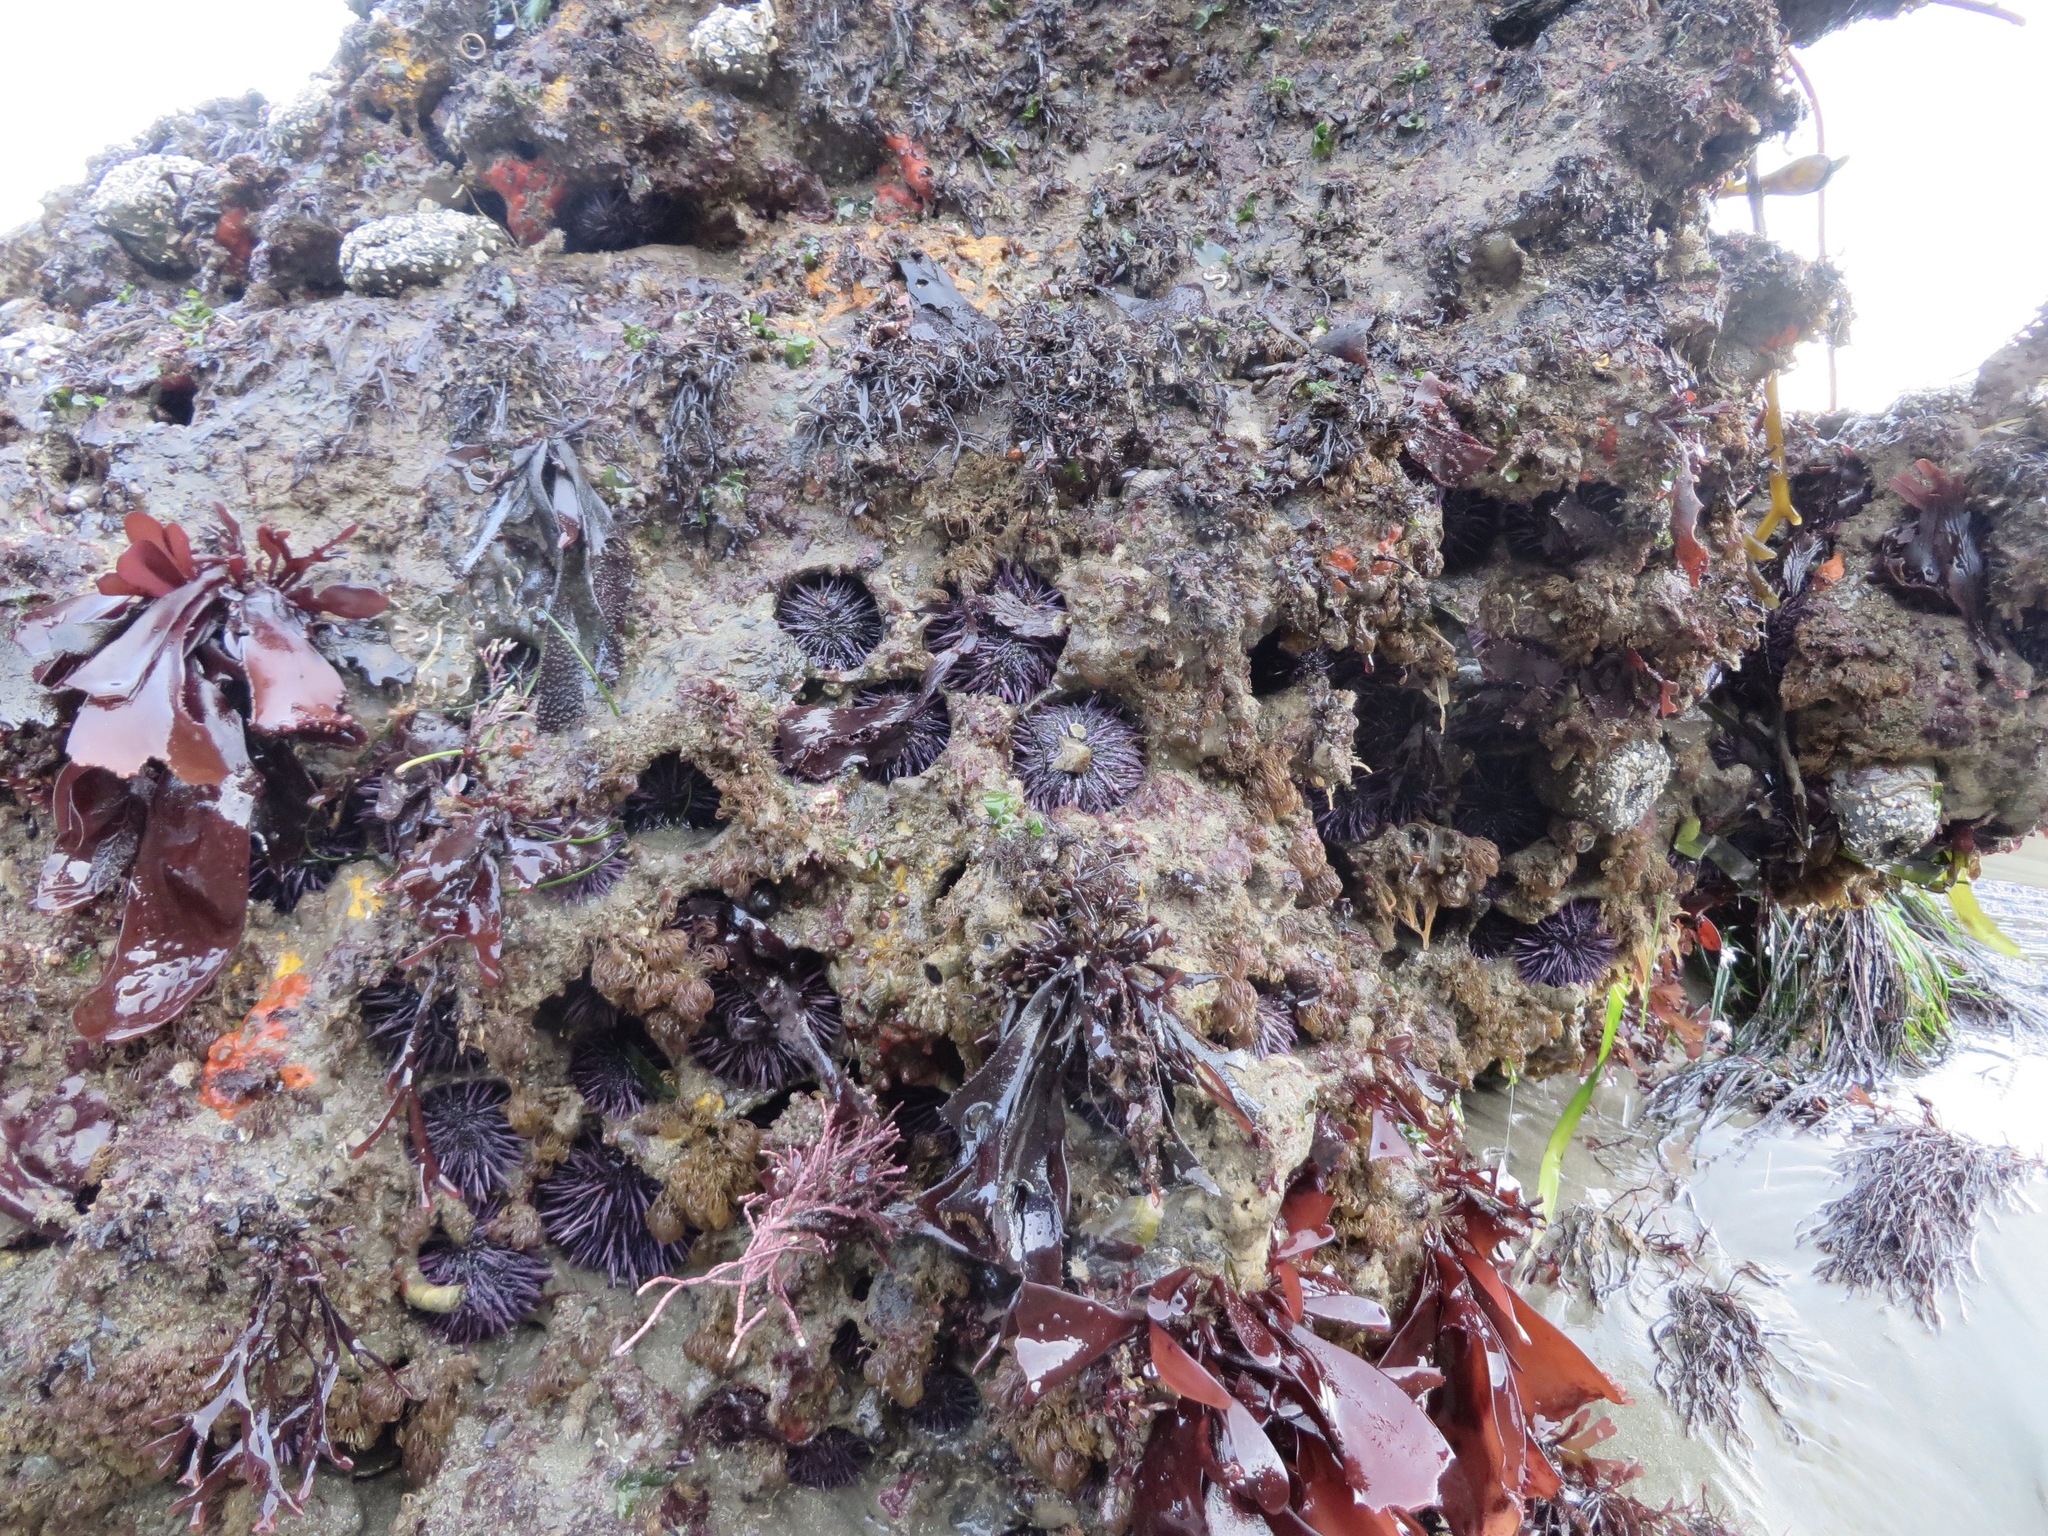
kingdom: Animalia
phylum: Echinodermata
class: Echinoidea
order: Camarodonta
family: Strongylocentrotidae
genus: Strongylocentrotus
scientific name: Strongylocentrotus purpuratus
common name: Purple sea urchin
